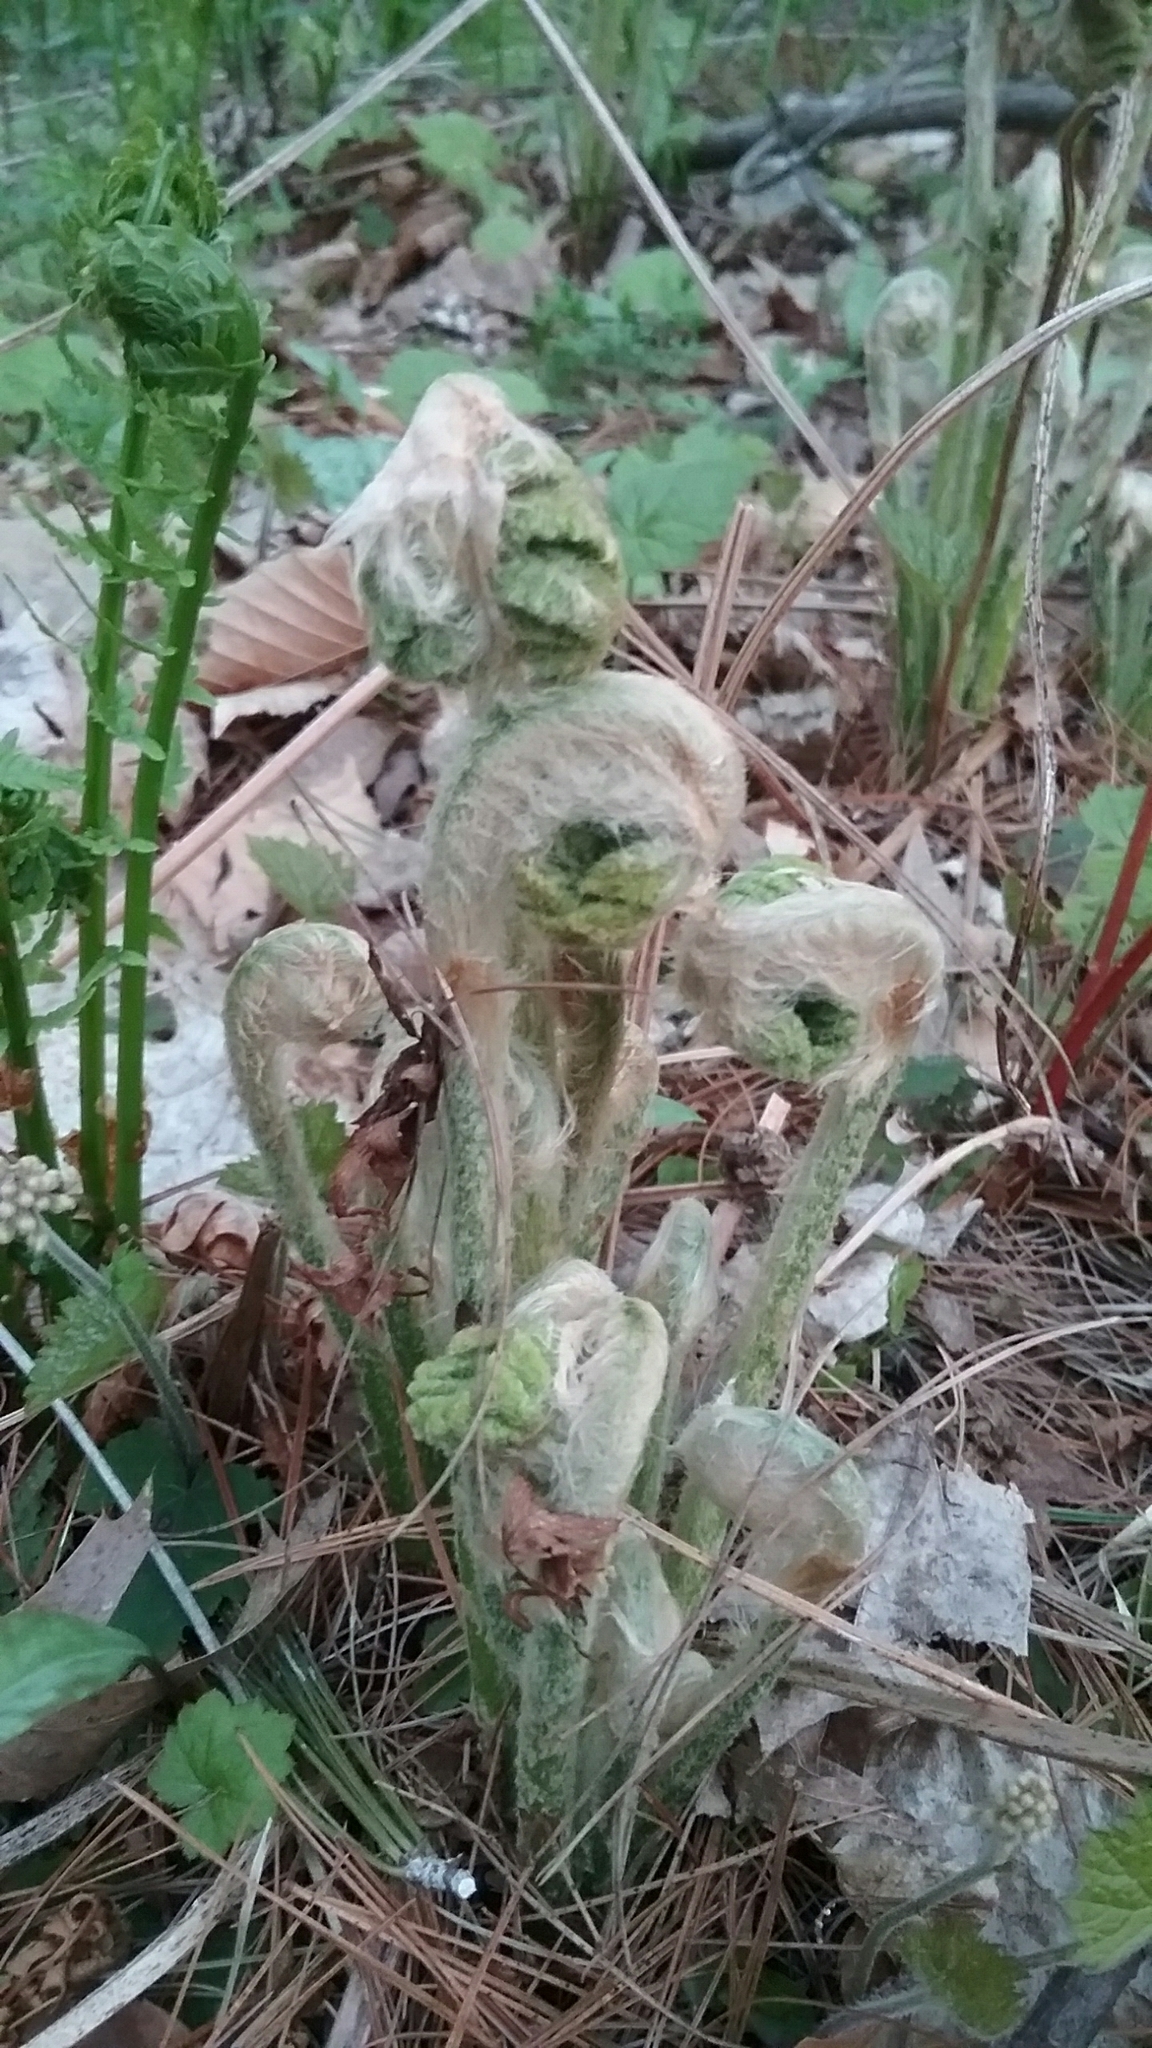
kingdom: Plantae
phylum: Tracheophyta
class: Polypodiopsida
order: Osmundales
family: Osmundaceae
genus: Osmundastrum
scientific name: Osmundastrum cinnamomeum
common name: Cinnamon fern
